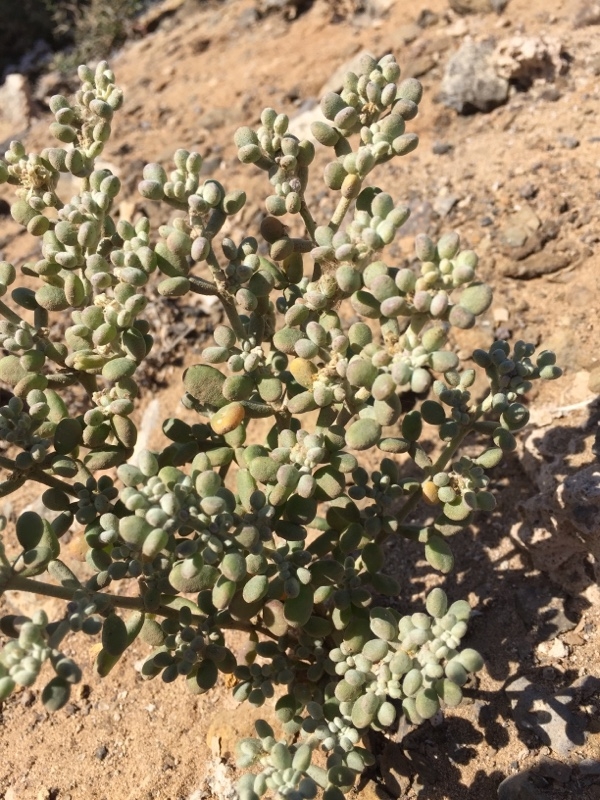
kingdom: Plantae
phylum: Tracheophyta
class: Magnoliopsida
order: Zygophyllales
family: Zygophyllaceae
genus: Tetraena
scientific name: Tetraena fontanesii
